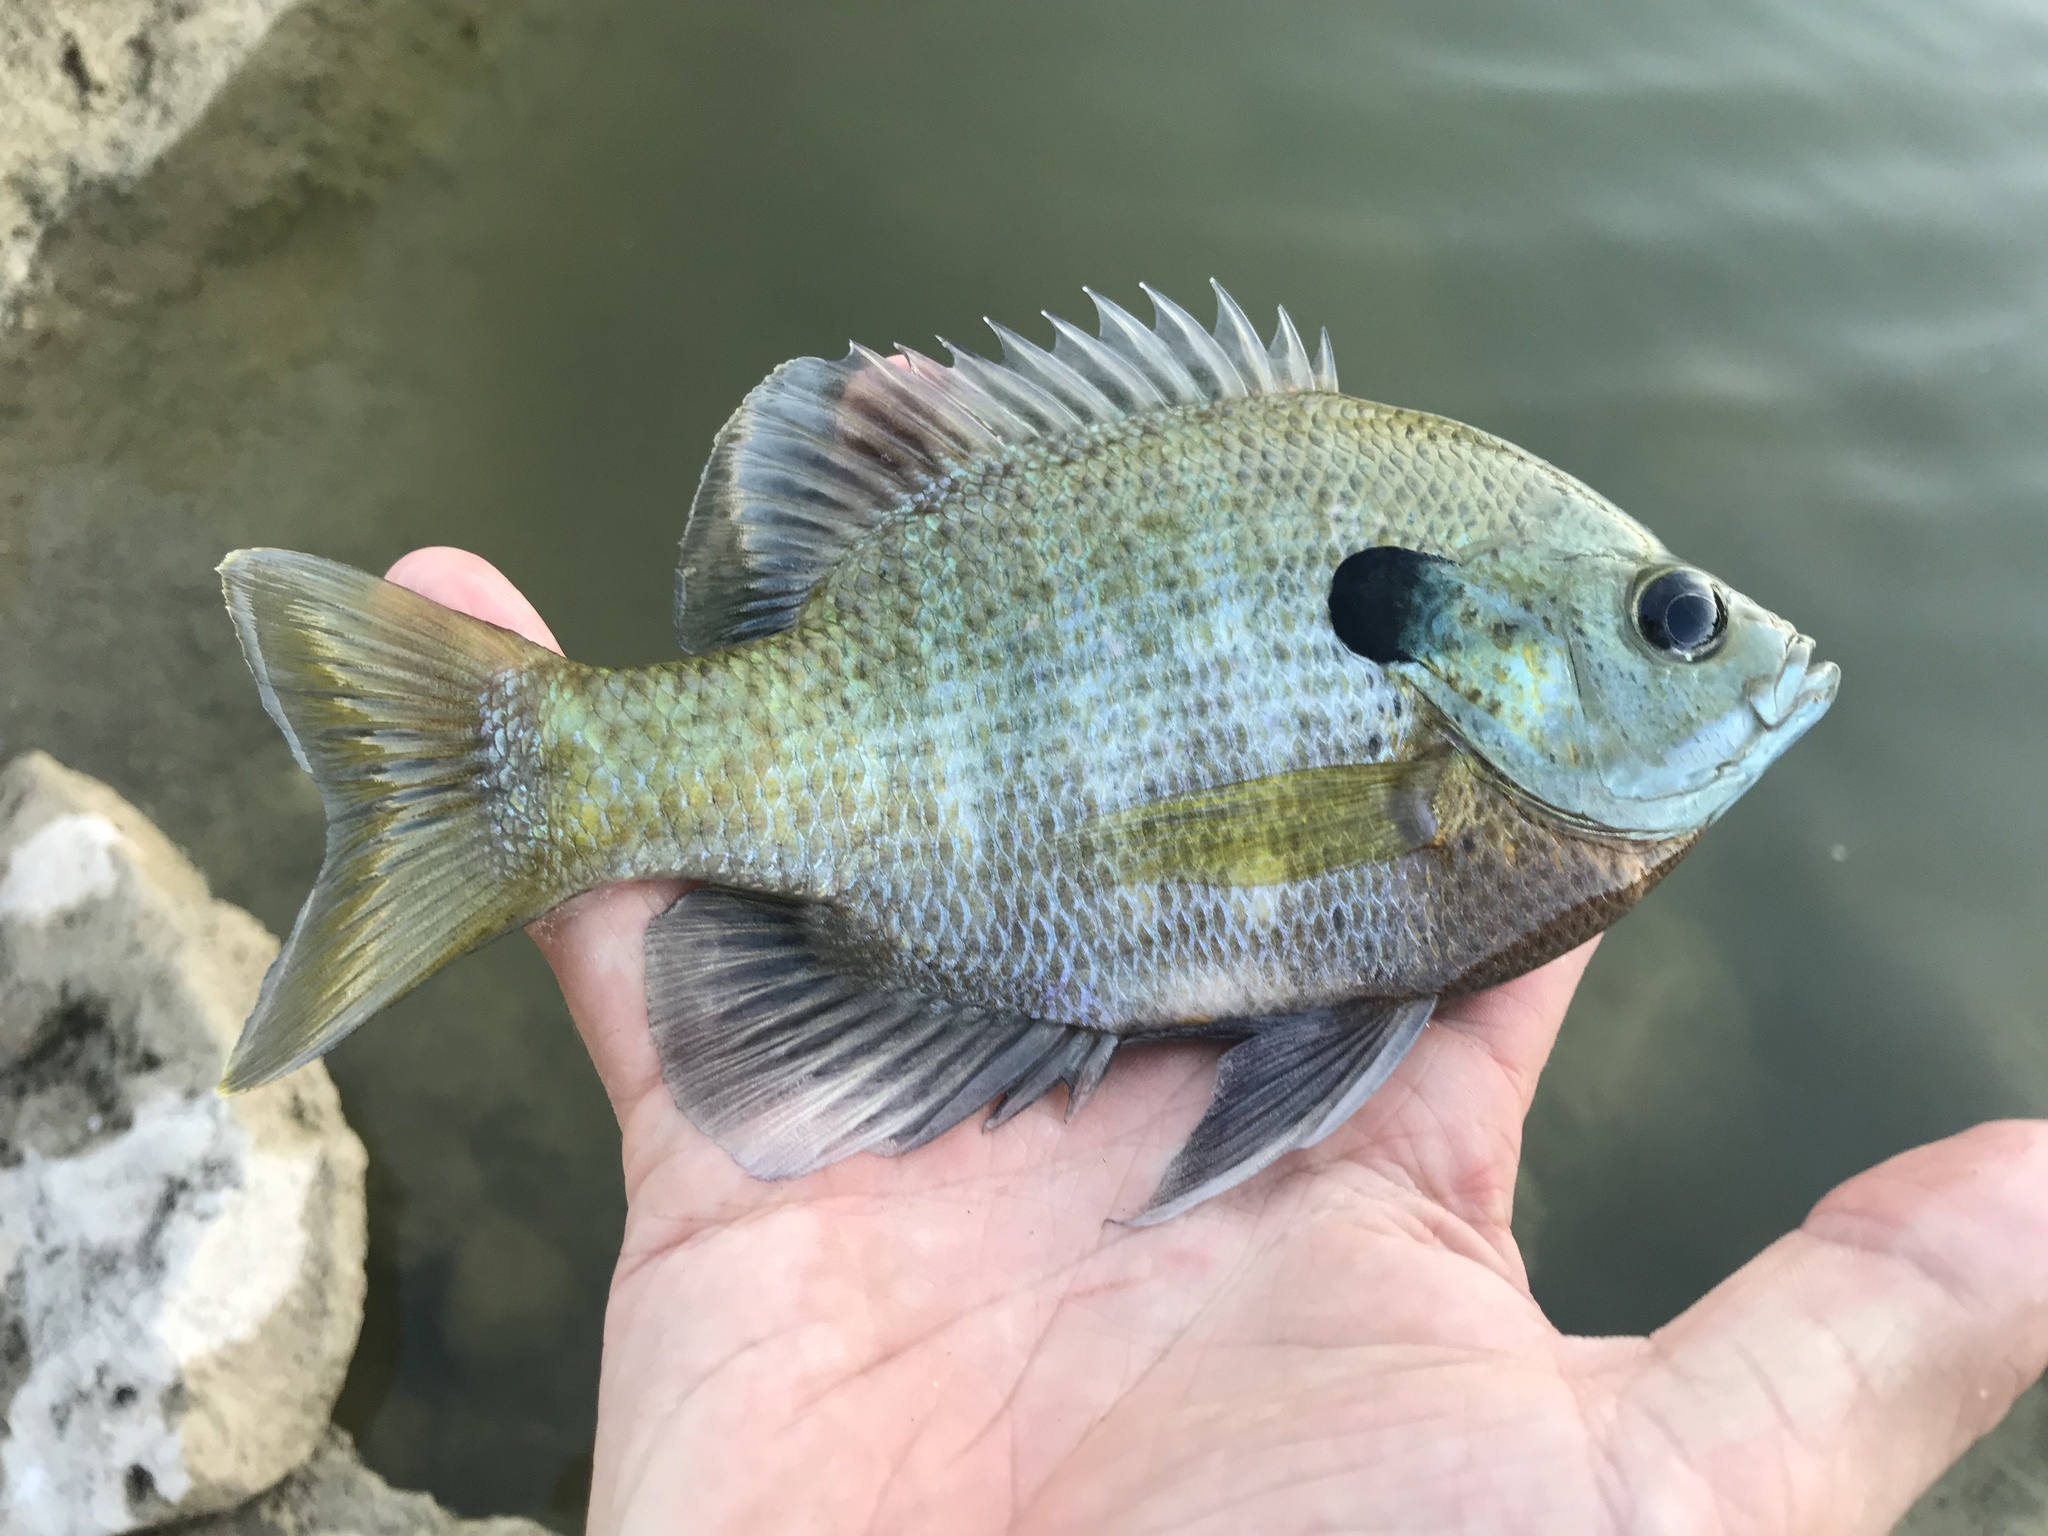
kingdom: Animalia
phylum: Chordata
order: Perciformes
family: Centrarchidae
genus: Lepomis
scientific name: Lepomis macrochirus
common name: Bluegill
